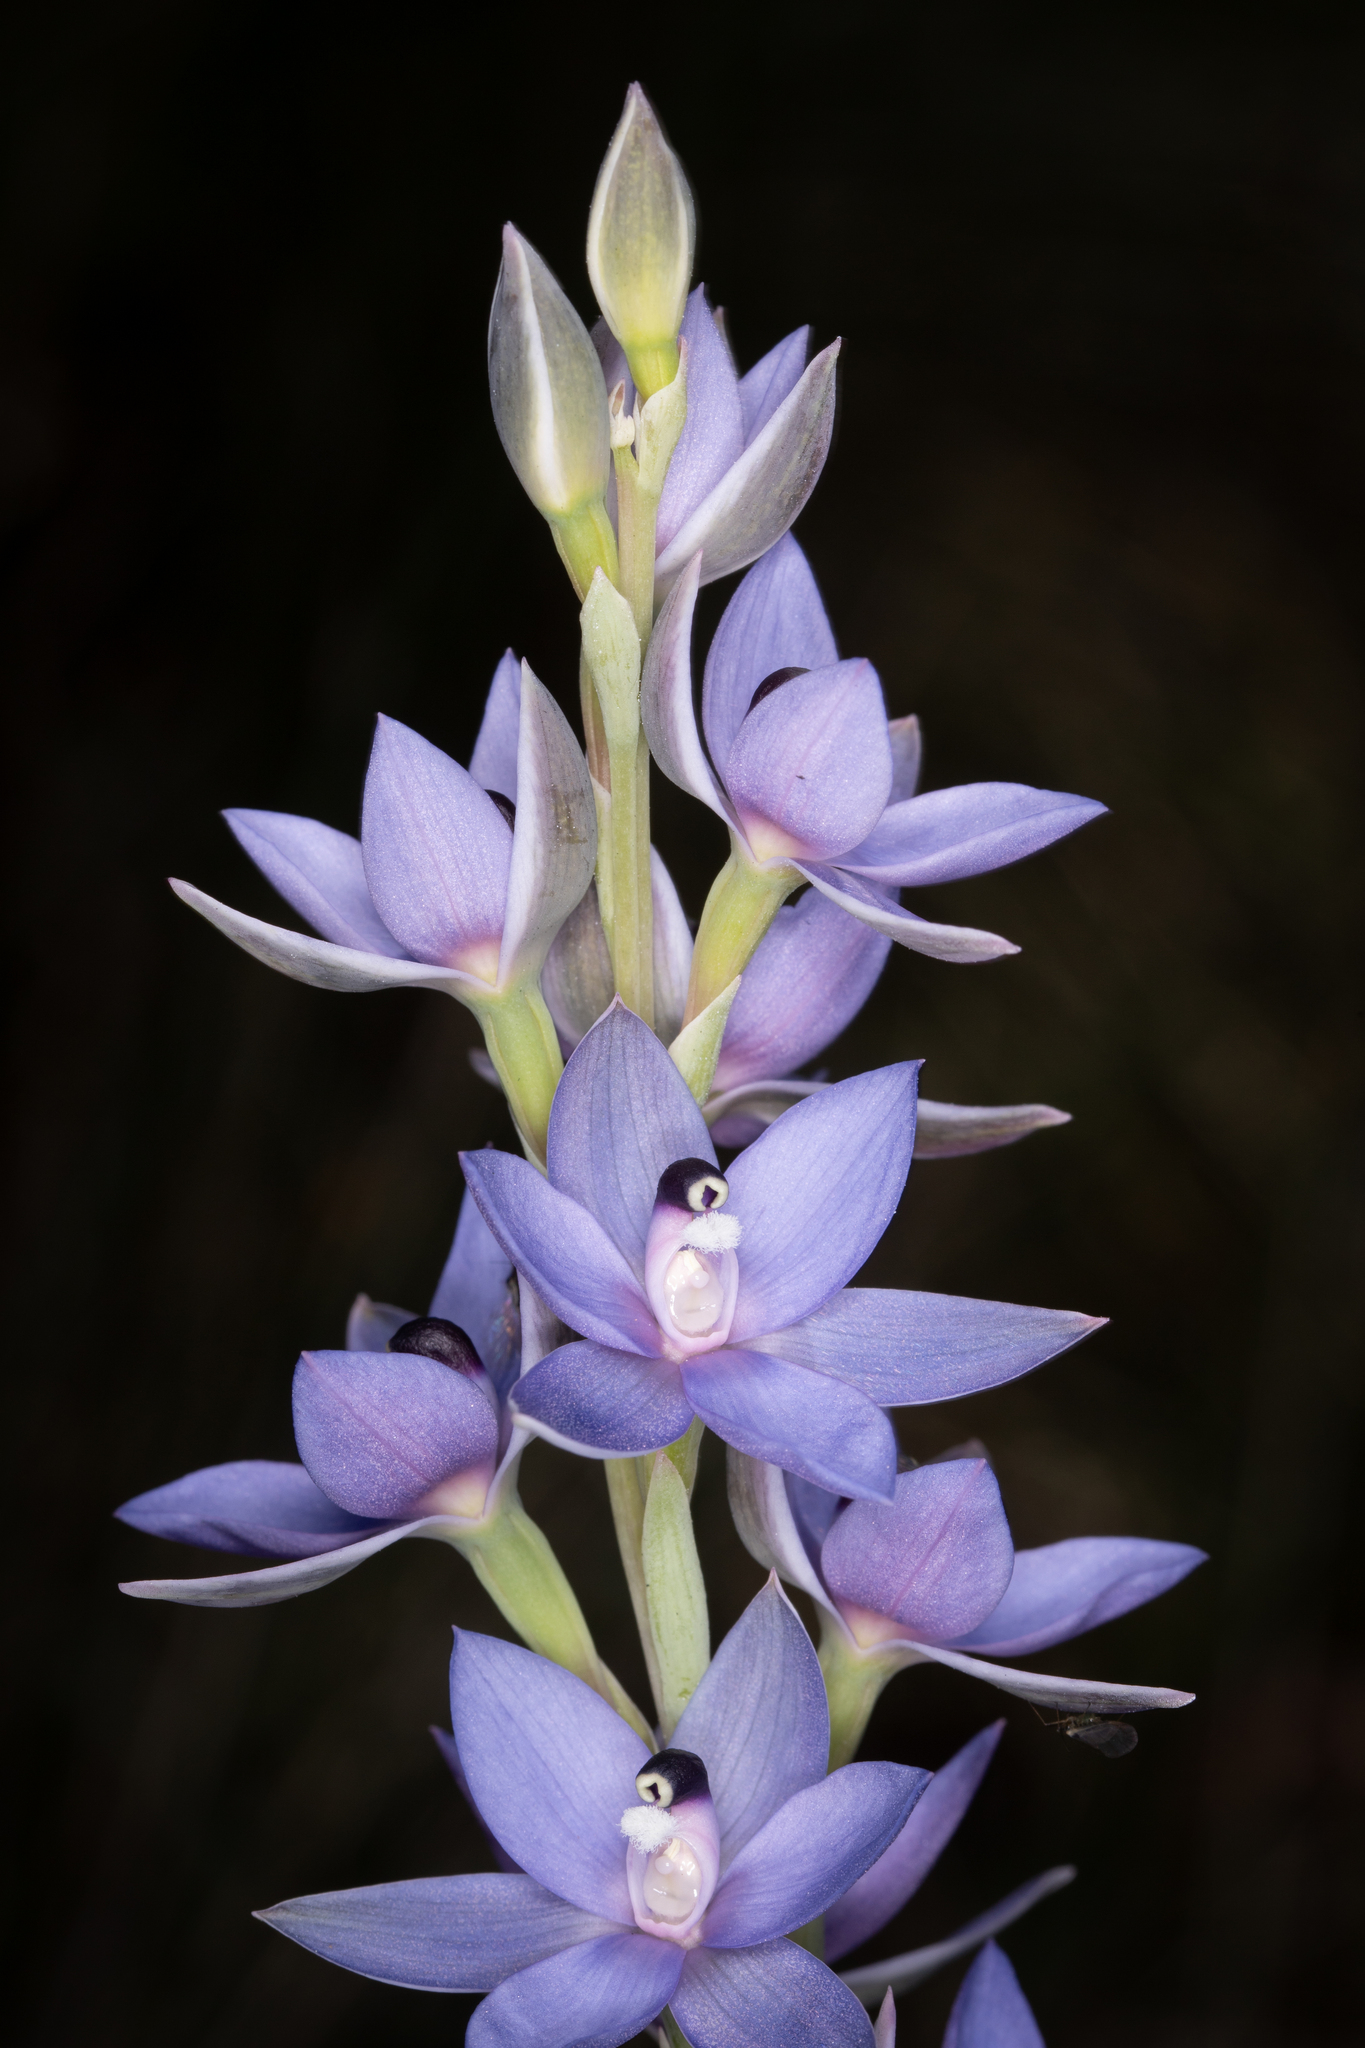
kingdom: Plantae
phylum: Tracheophyta
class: Liliopsida
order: Asparagales
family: Orchidaceae
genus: Thelymitra
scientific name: Thelymitra macrophylla
